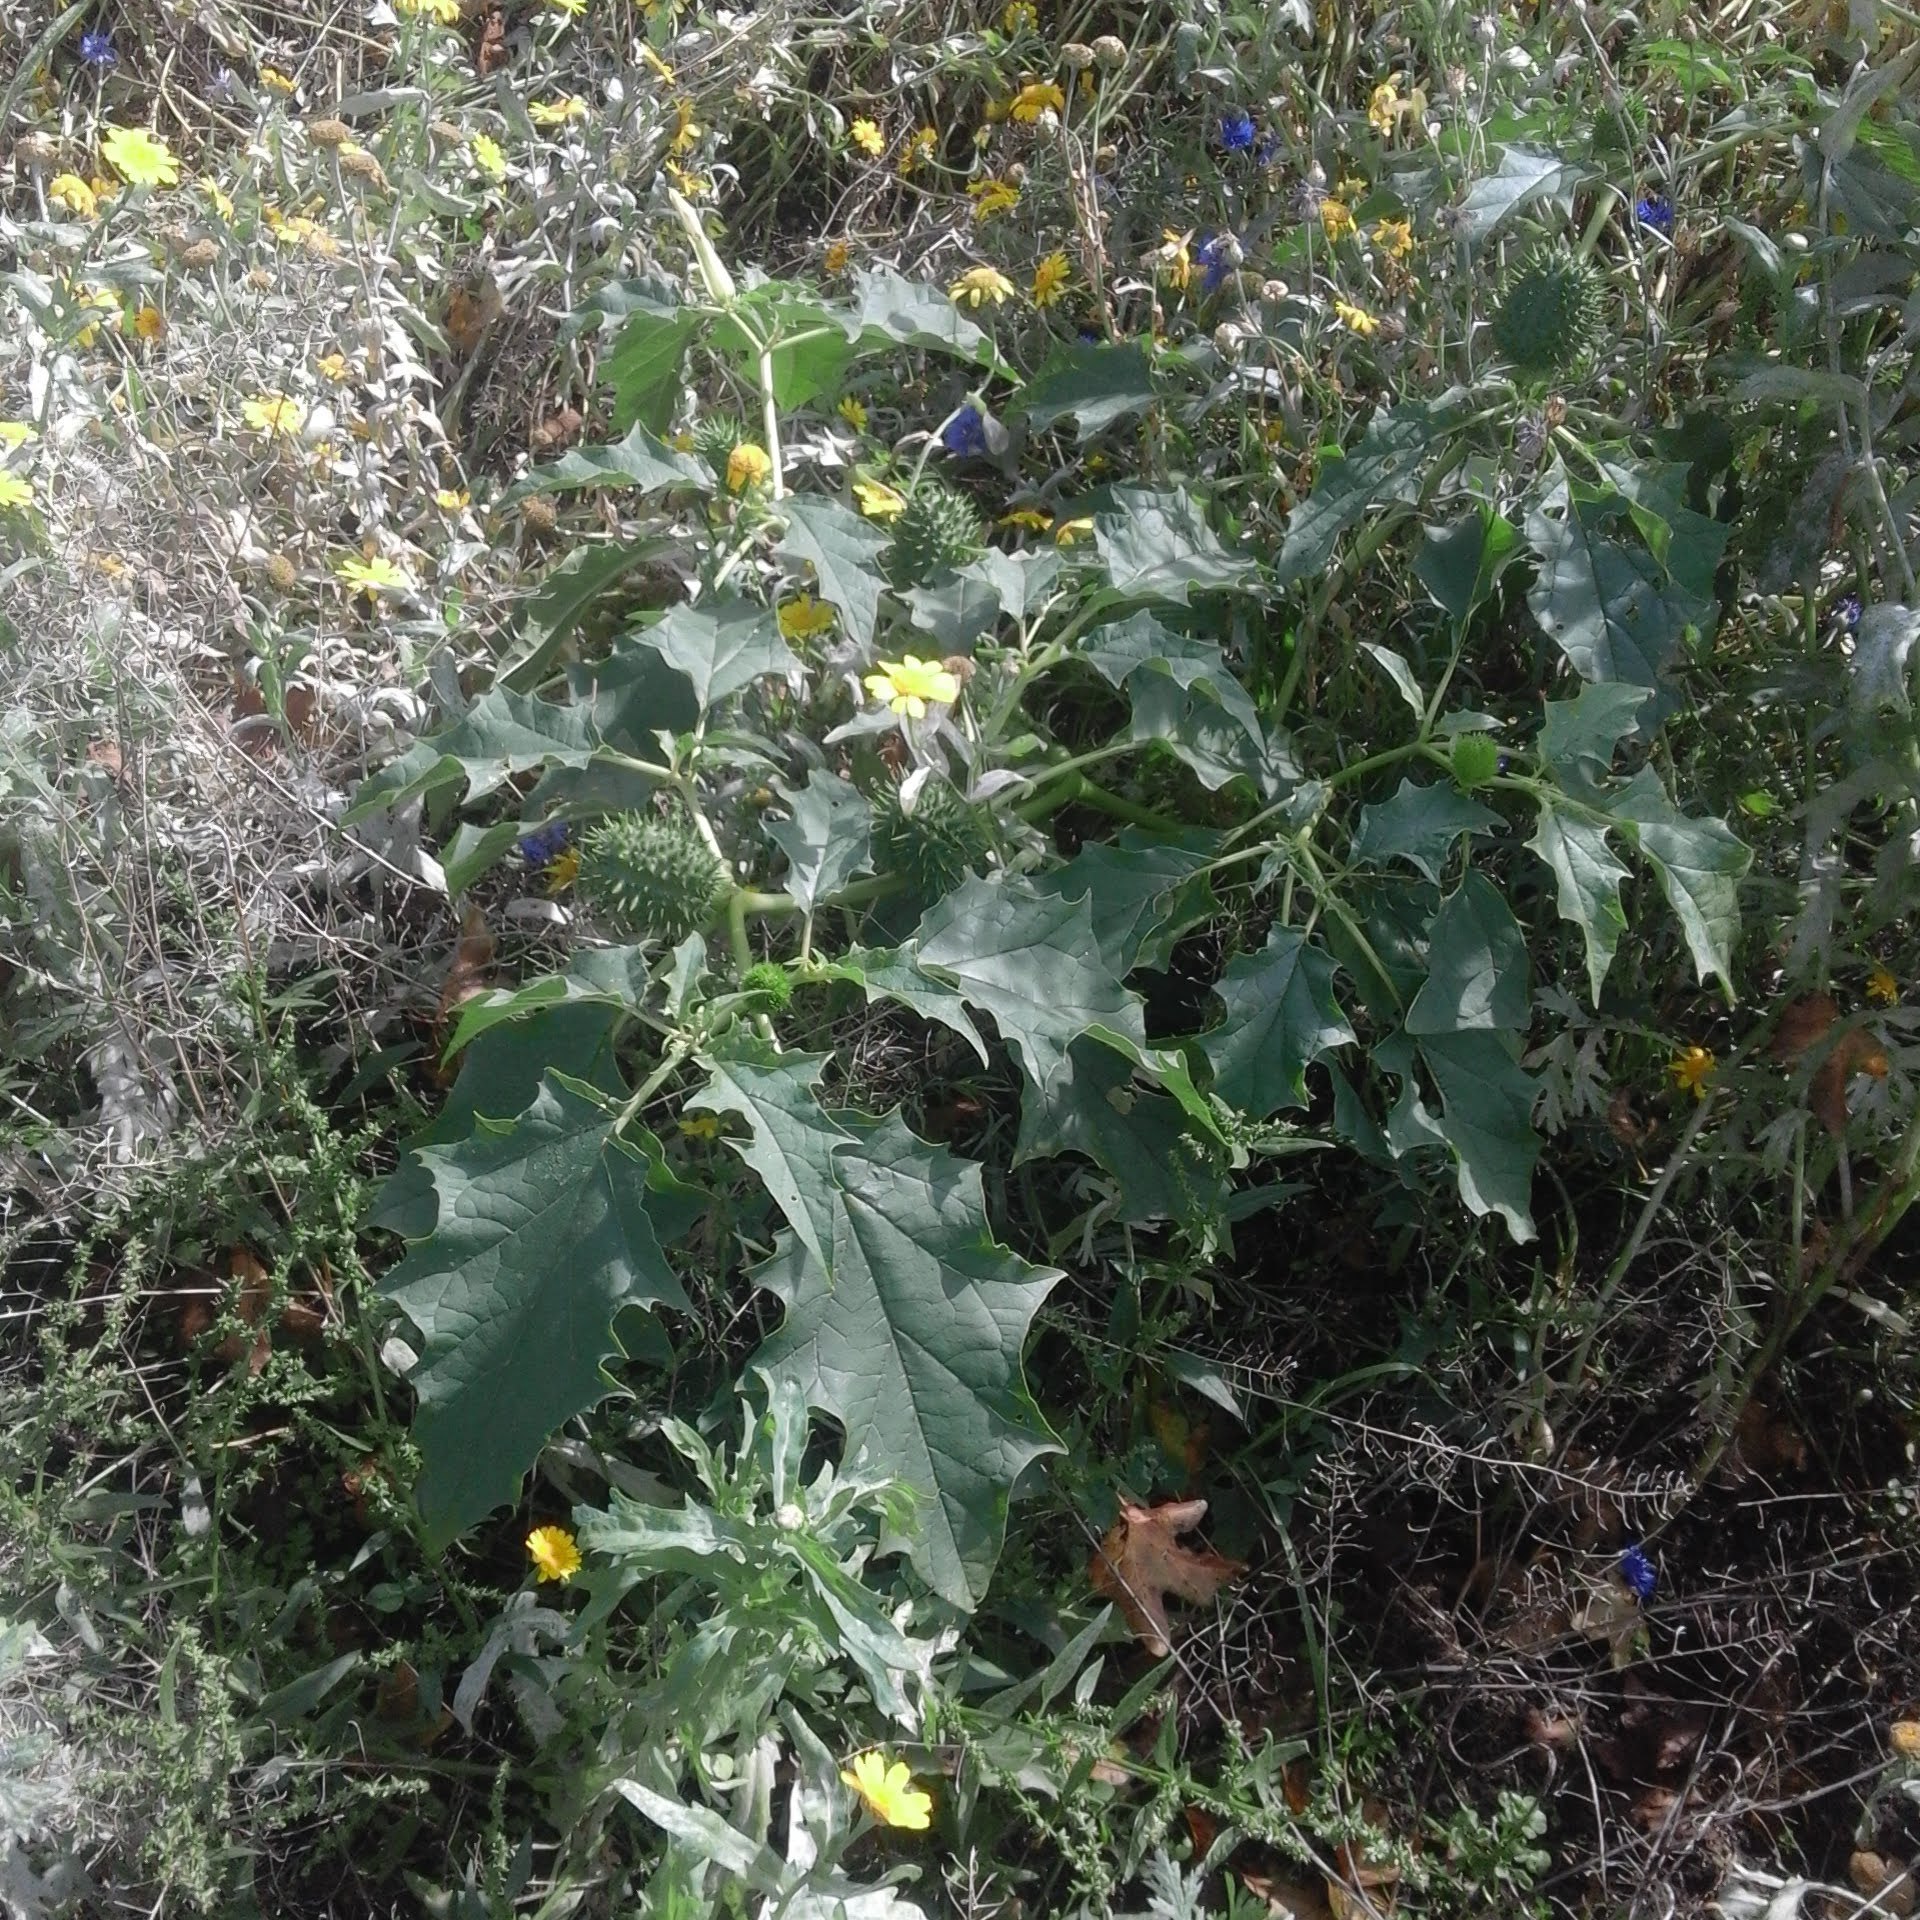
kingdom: Plantae
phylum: Tracheophyta
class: Magnoliopsida
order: Solanales
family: Solanaceae
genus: Datura
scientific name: Datura stramonium
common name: Thorn-apple
